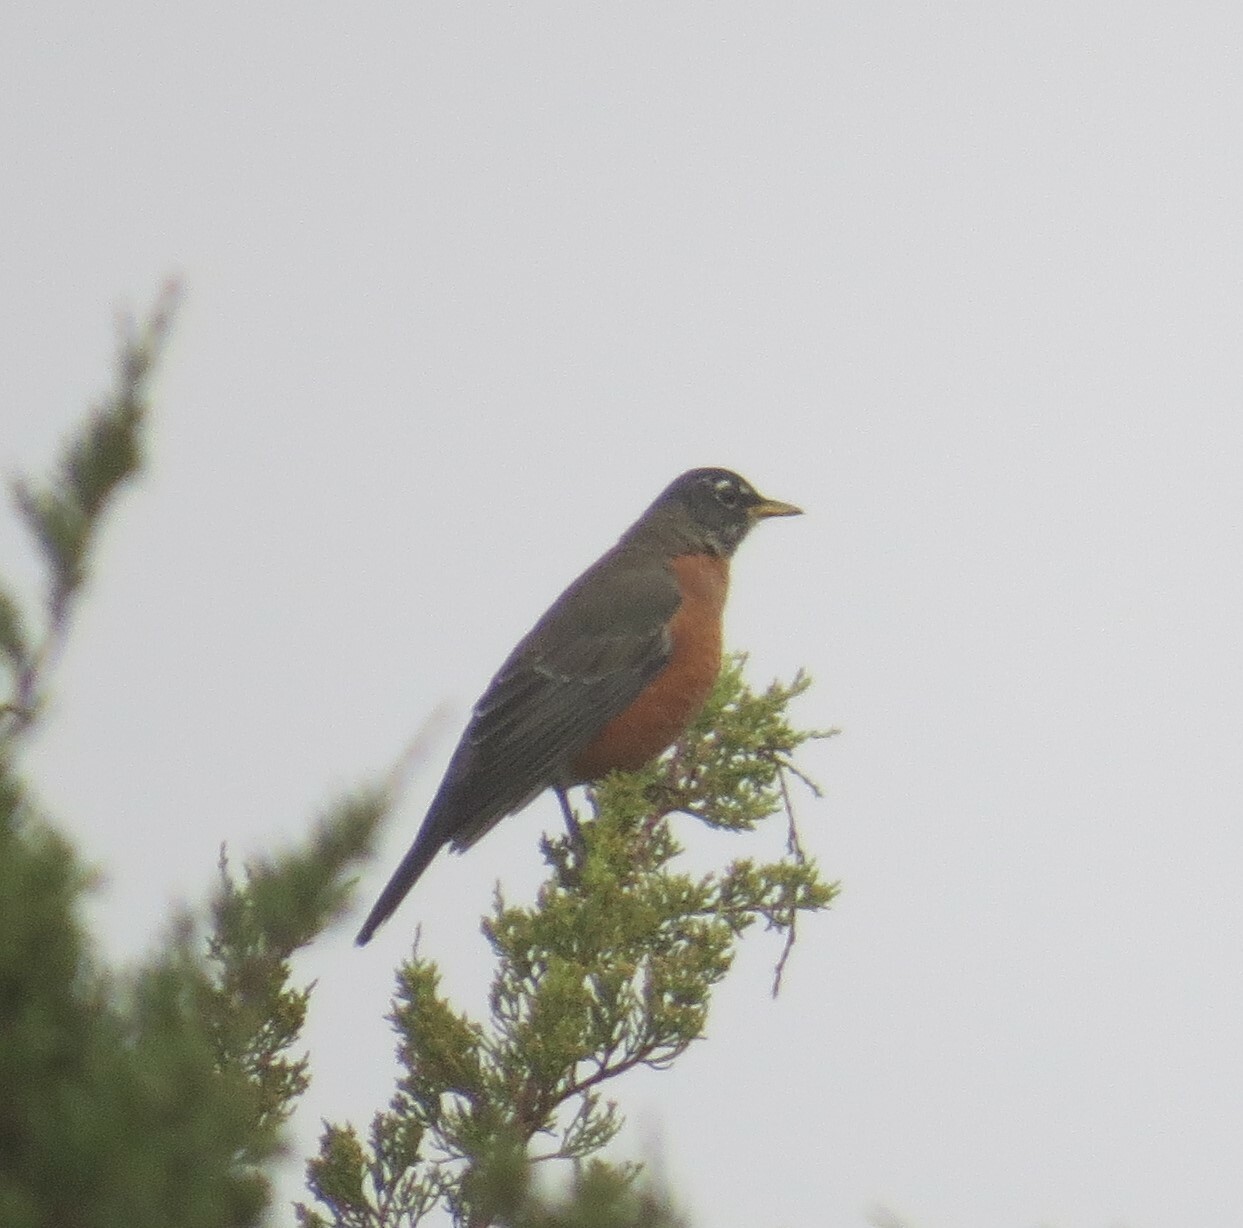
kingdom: Animalia
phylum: Chordata
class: Aves
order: Passeriformes
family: Turdidae
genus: Turdus
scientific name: Turdus migratorius
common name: American robin
